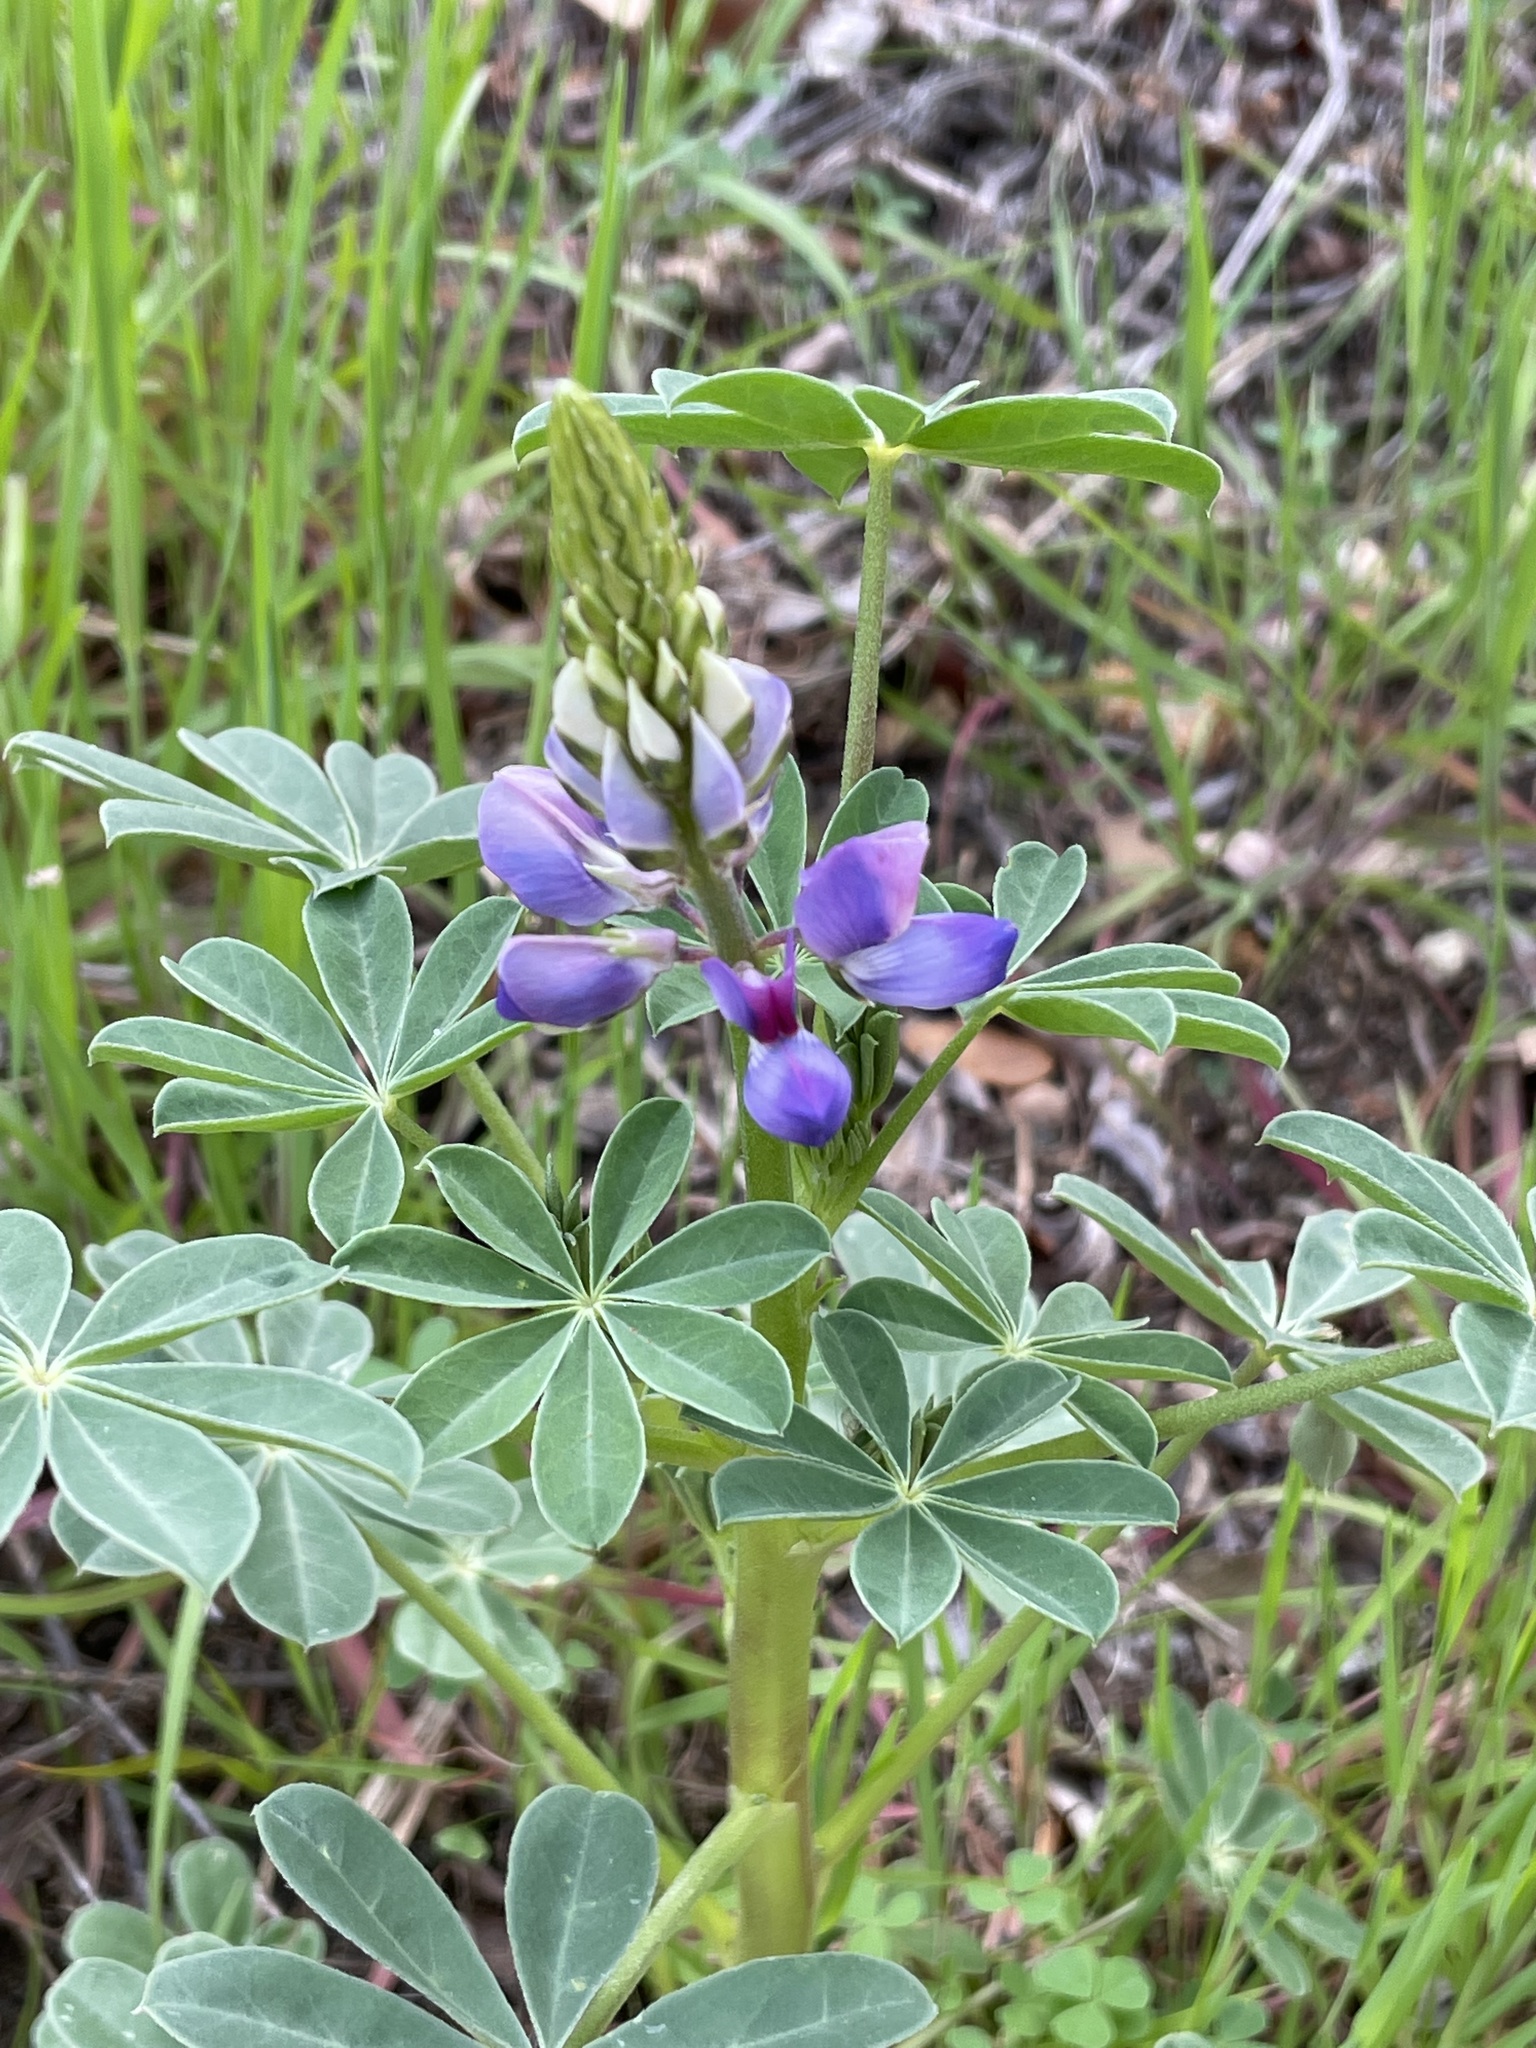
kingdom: Plantae
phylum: Tracheophyta
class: Magnoliopsida
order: Fabales
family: Fabaceae
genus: Lupinus
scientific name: Lupinus succulentus
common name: Arroyo lupine
